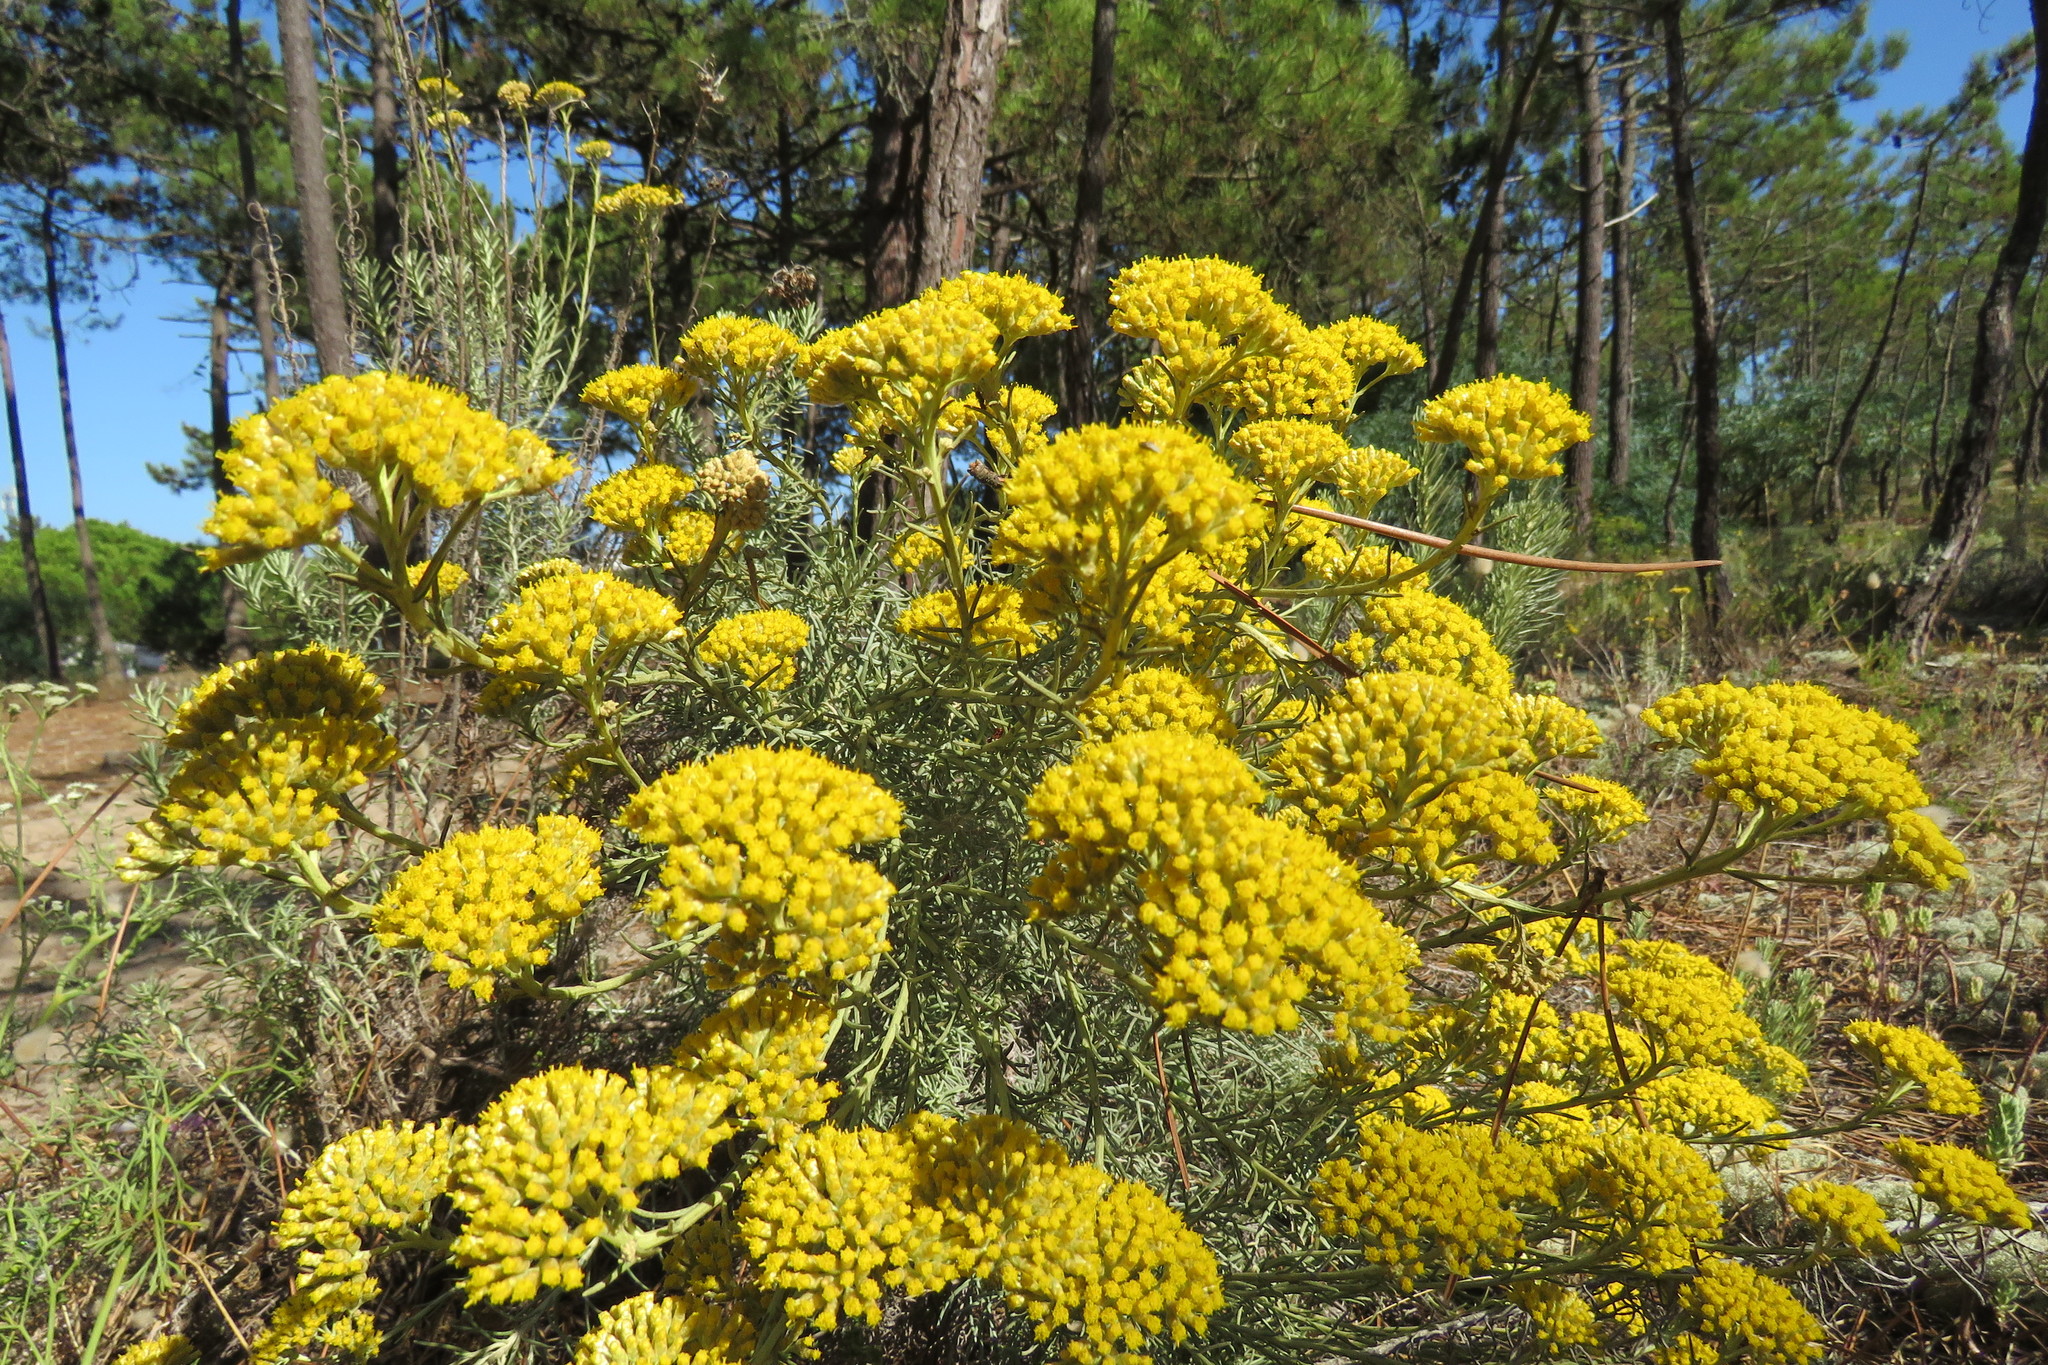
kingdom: Plantae
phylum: Tracheophyta
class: Magnoliopsida
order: Asterales
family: Asteraceae
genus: Helichrysum
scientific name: Helichrysum serotinum
